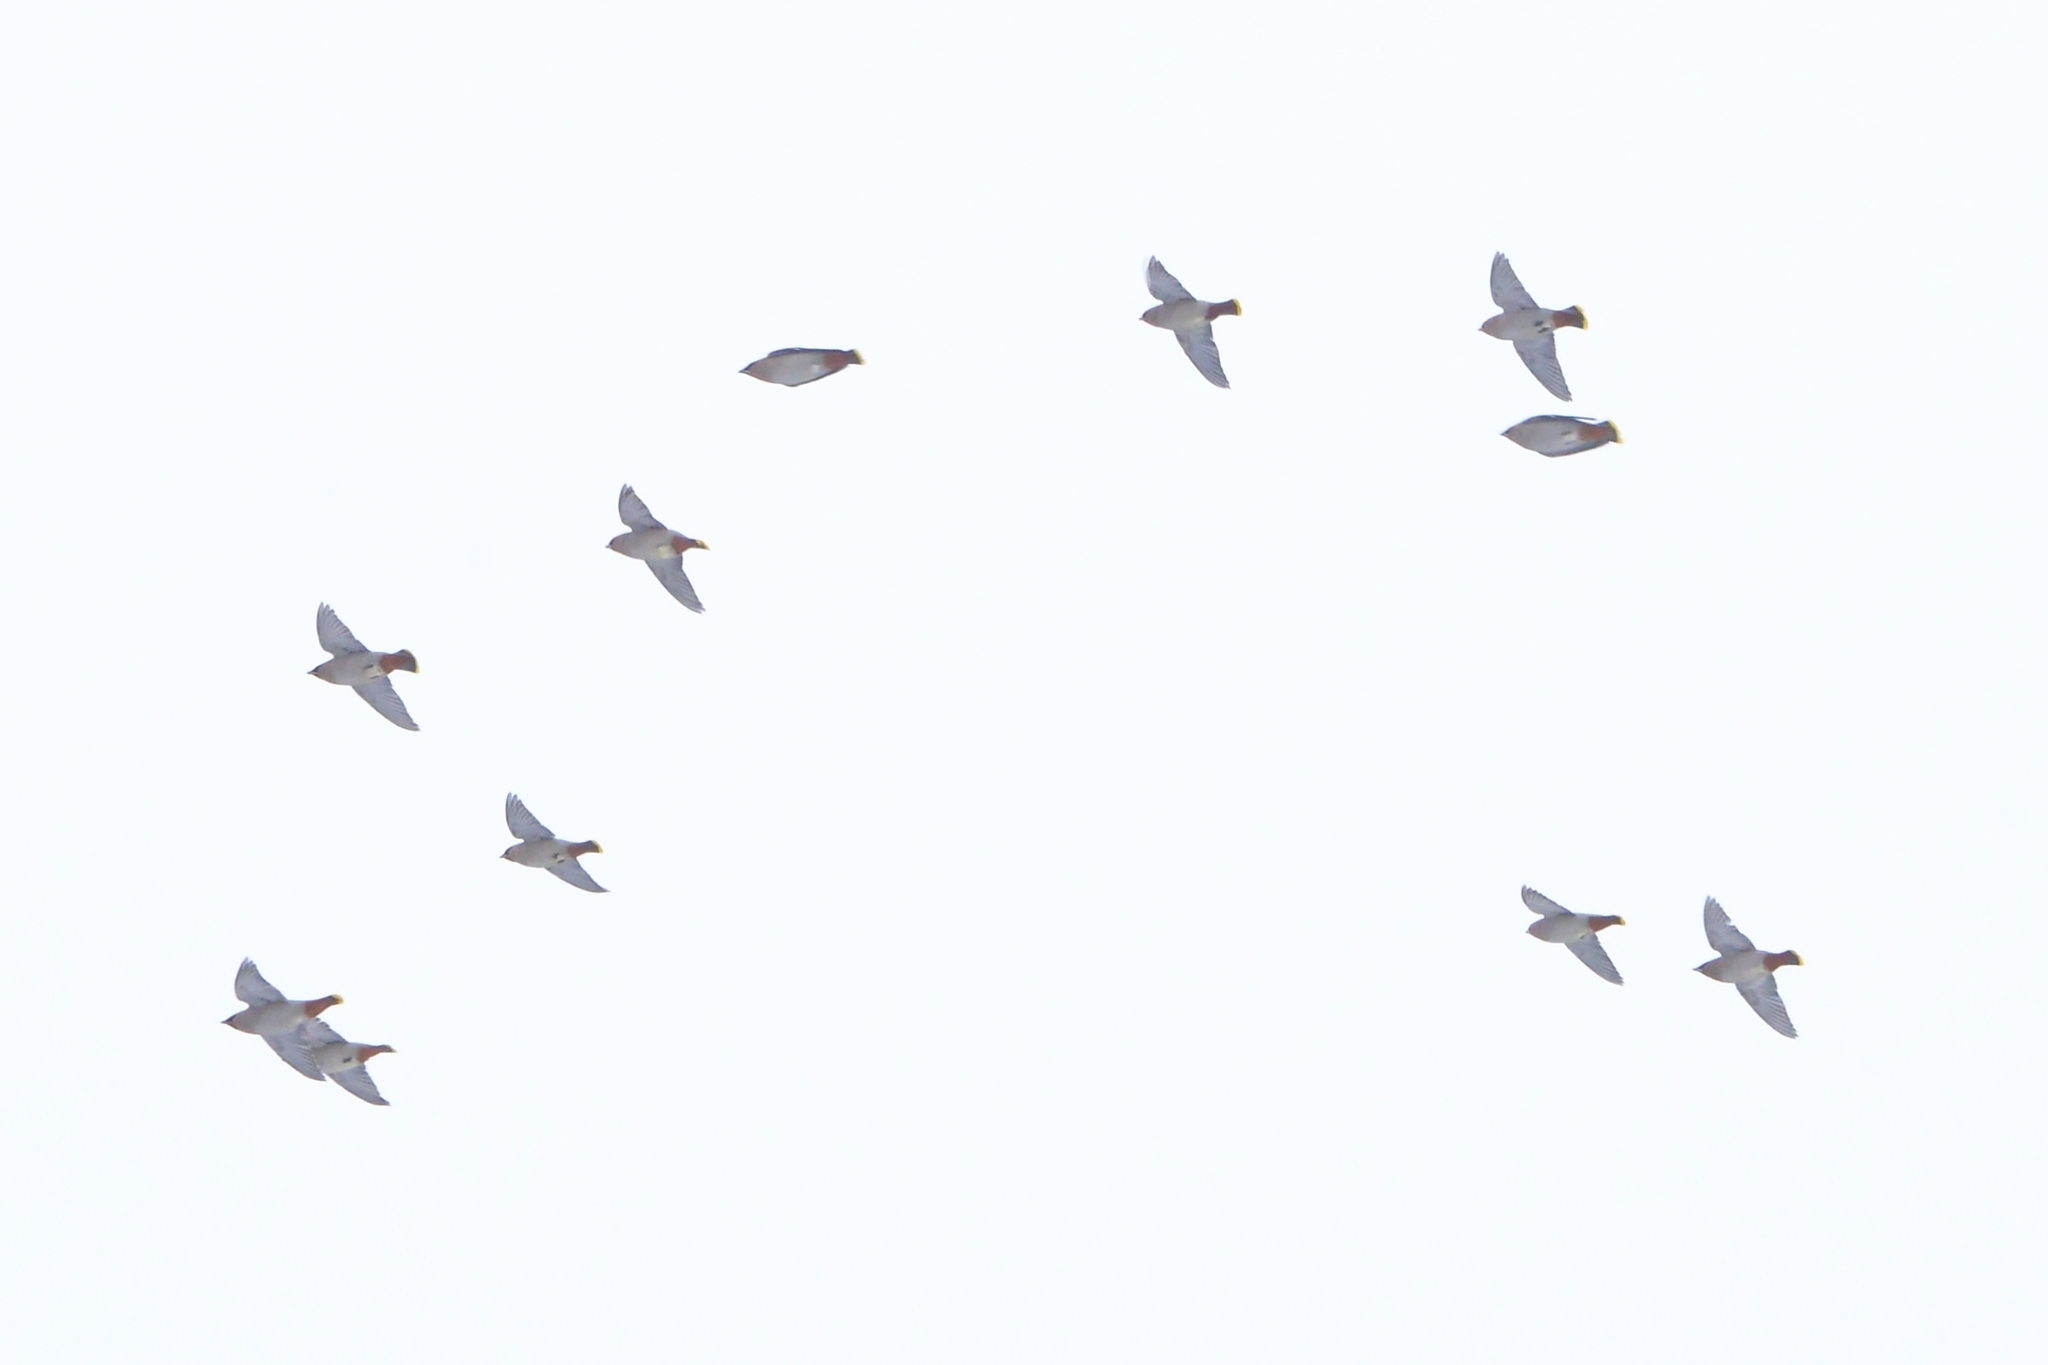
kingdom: Animalia
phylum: Chordata
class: Aves
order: Passeriformes
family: Bombycillidae
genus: Bombycilla
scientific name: Bombycilla garrulus
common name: Bohemian waxwing
